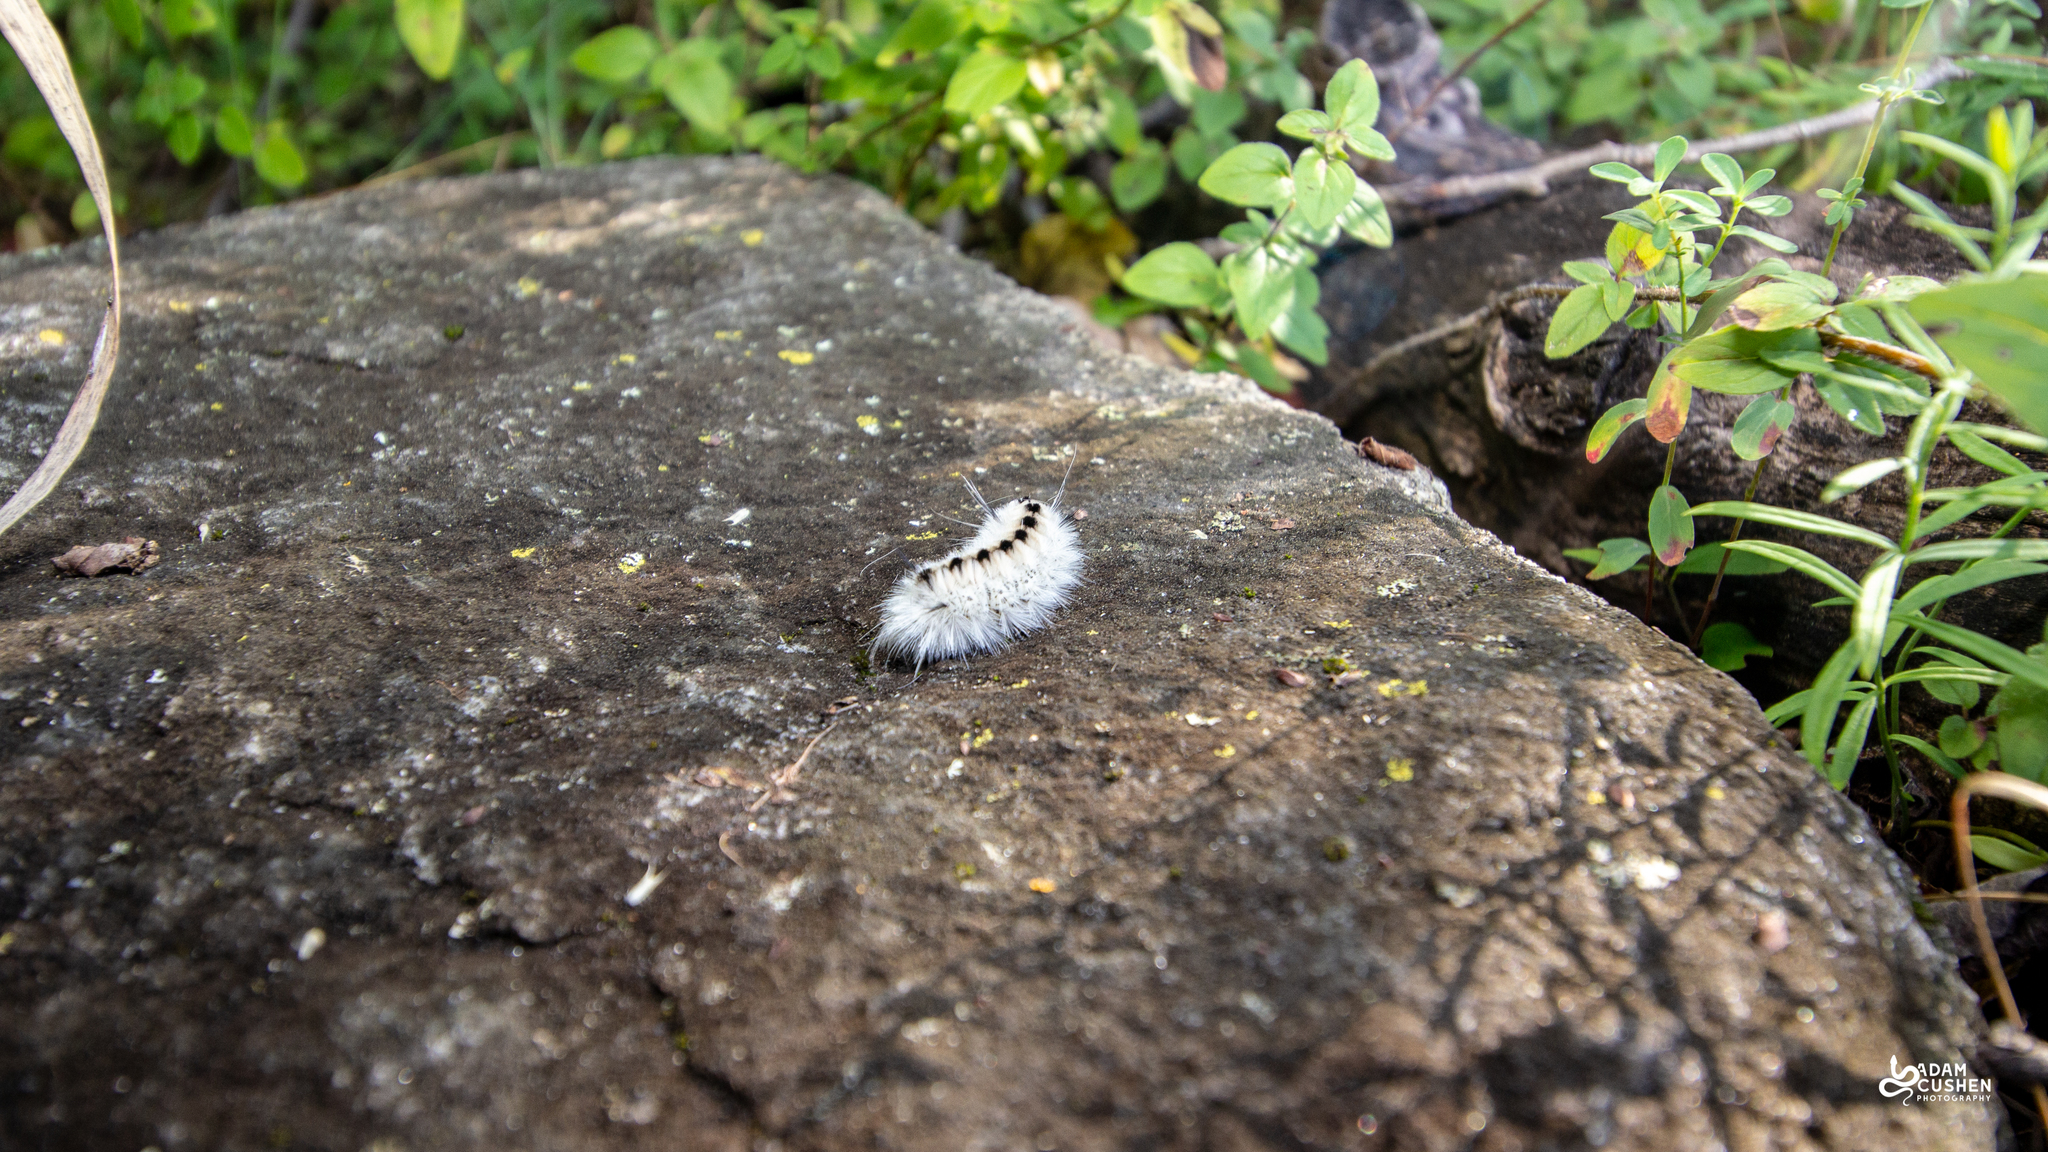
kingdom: Animalia
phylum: Arthropoda
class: Insecta
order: Lepidoptera
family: Erebidae
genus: Lophocampa
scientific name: Lophocampa caryae
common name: Hickory tussock moth
